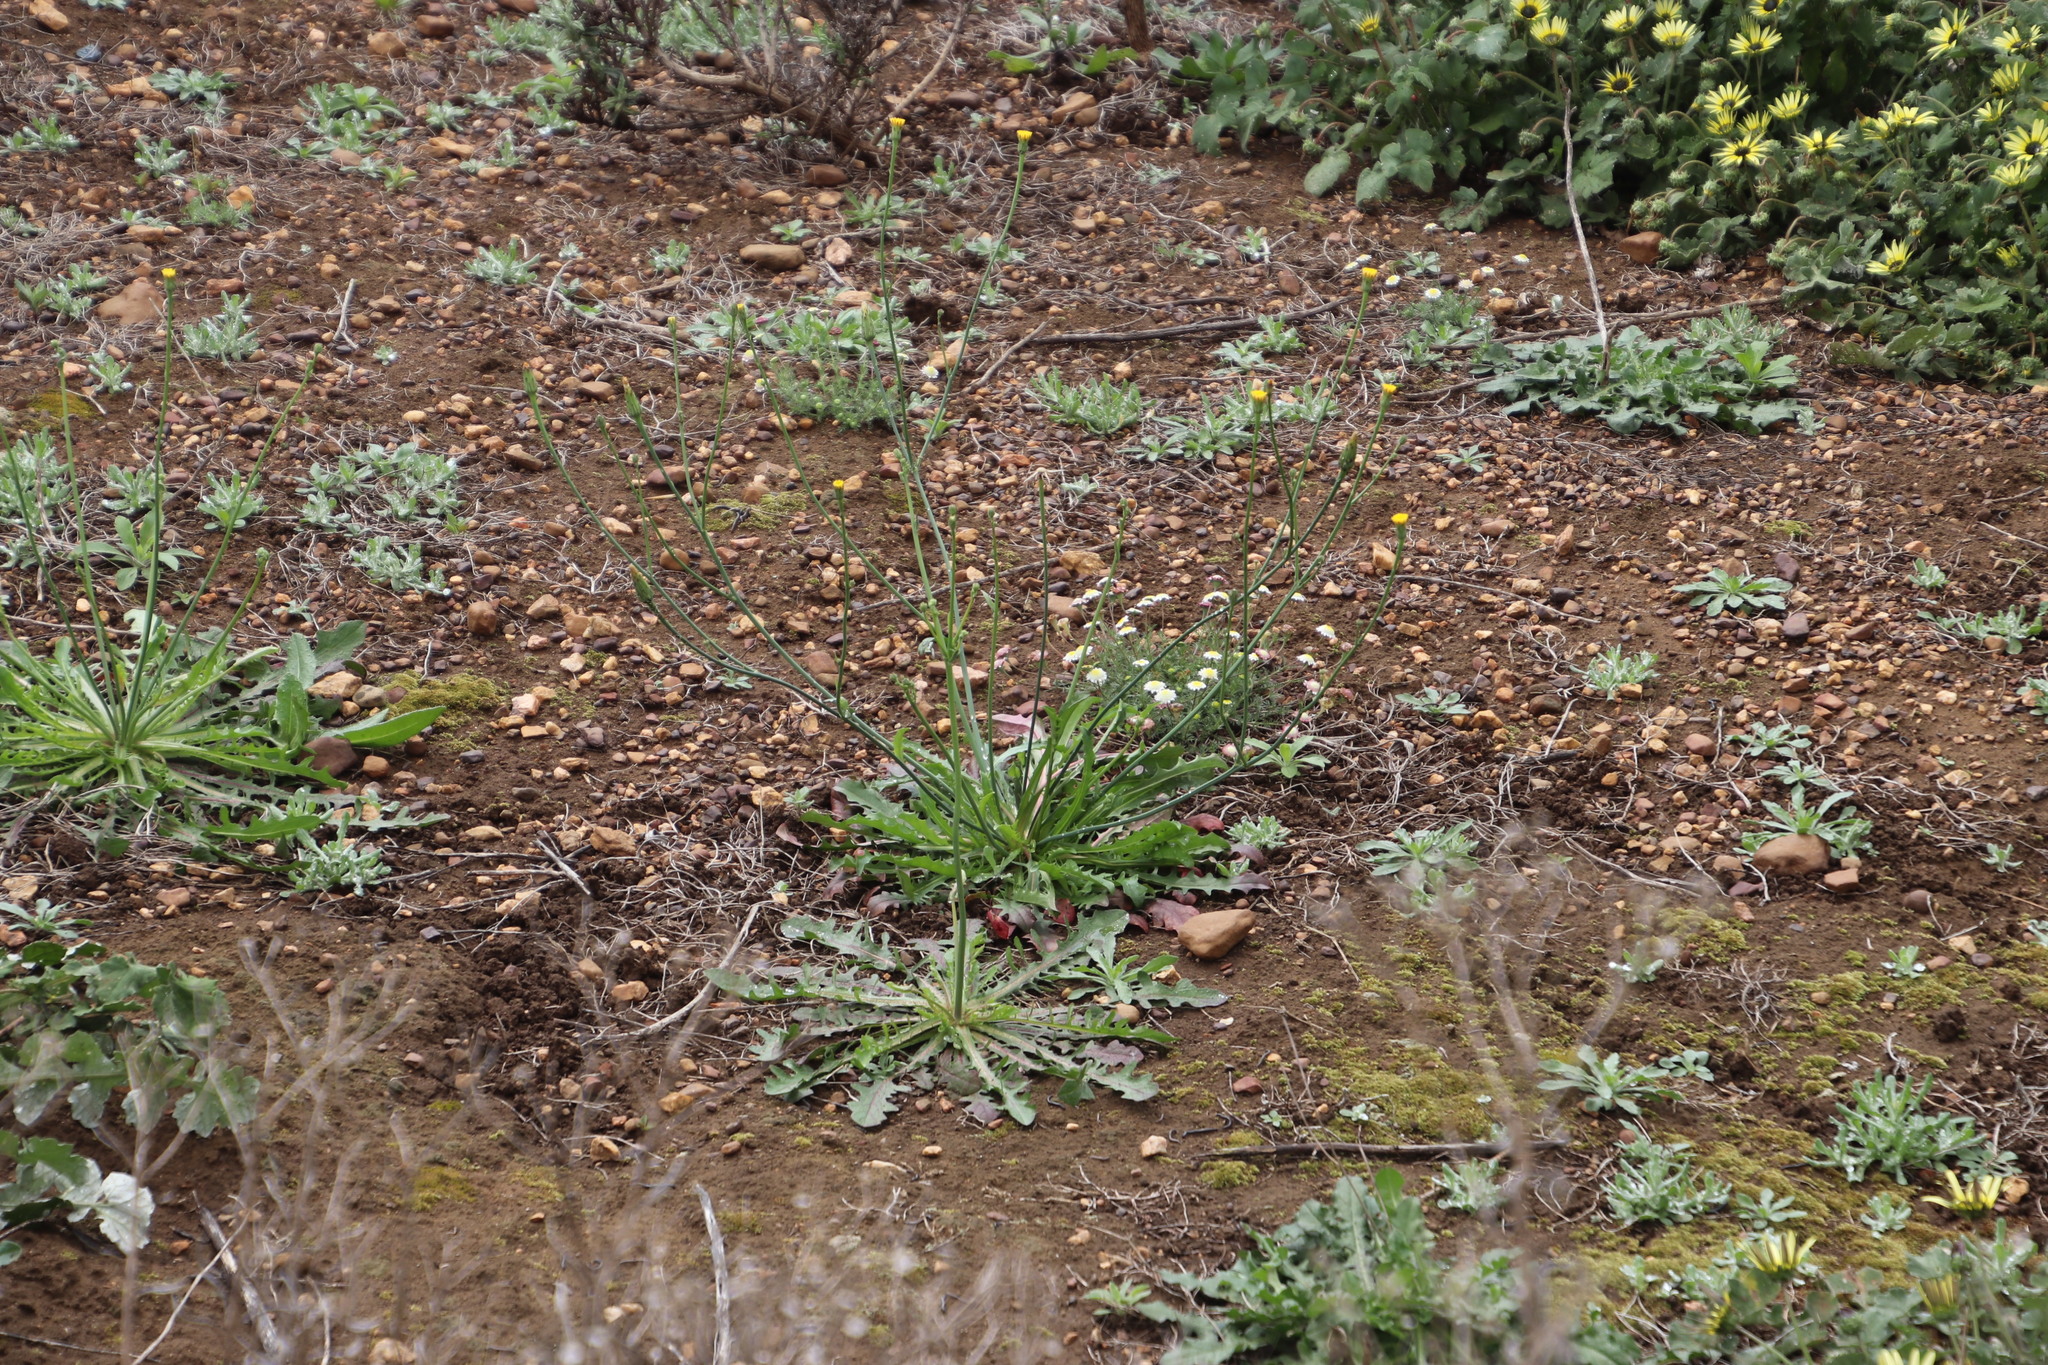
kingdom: Plantae
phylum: Tracheophyta
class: Magnoliopsida
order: Asterales
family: Asteraceae
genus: Hypochaeris
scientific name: Hypochaeris radicata
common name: Flatweed
